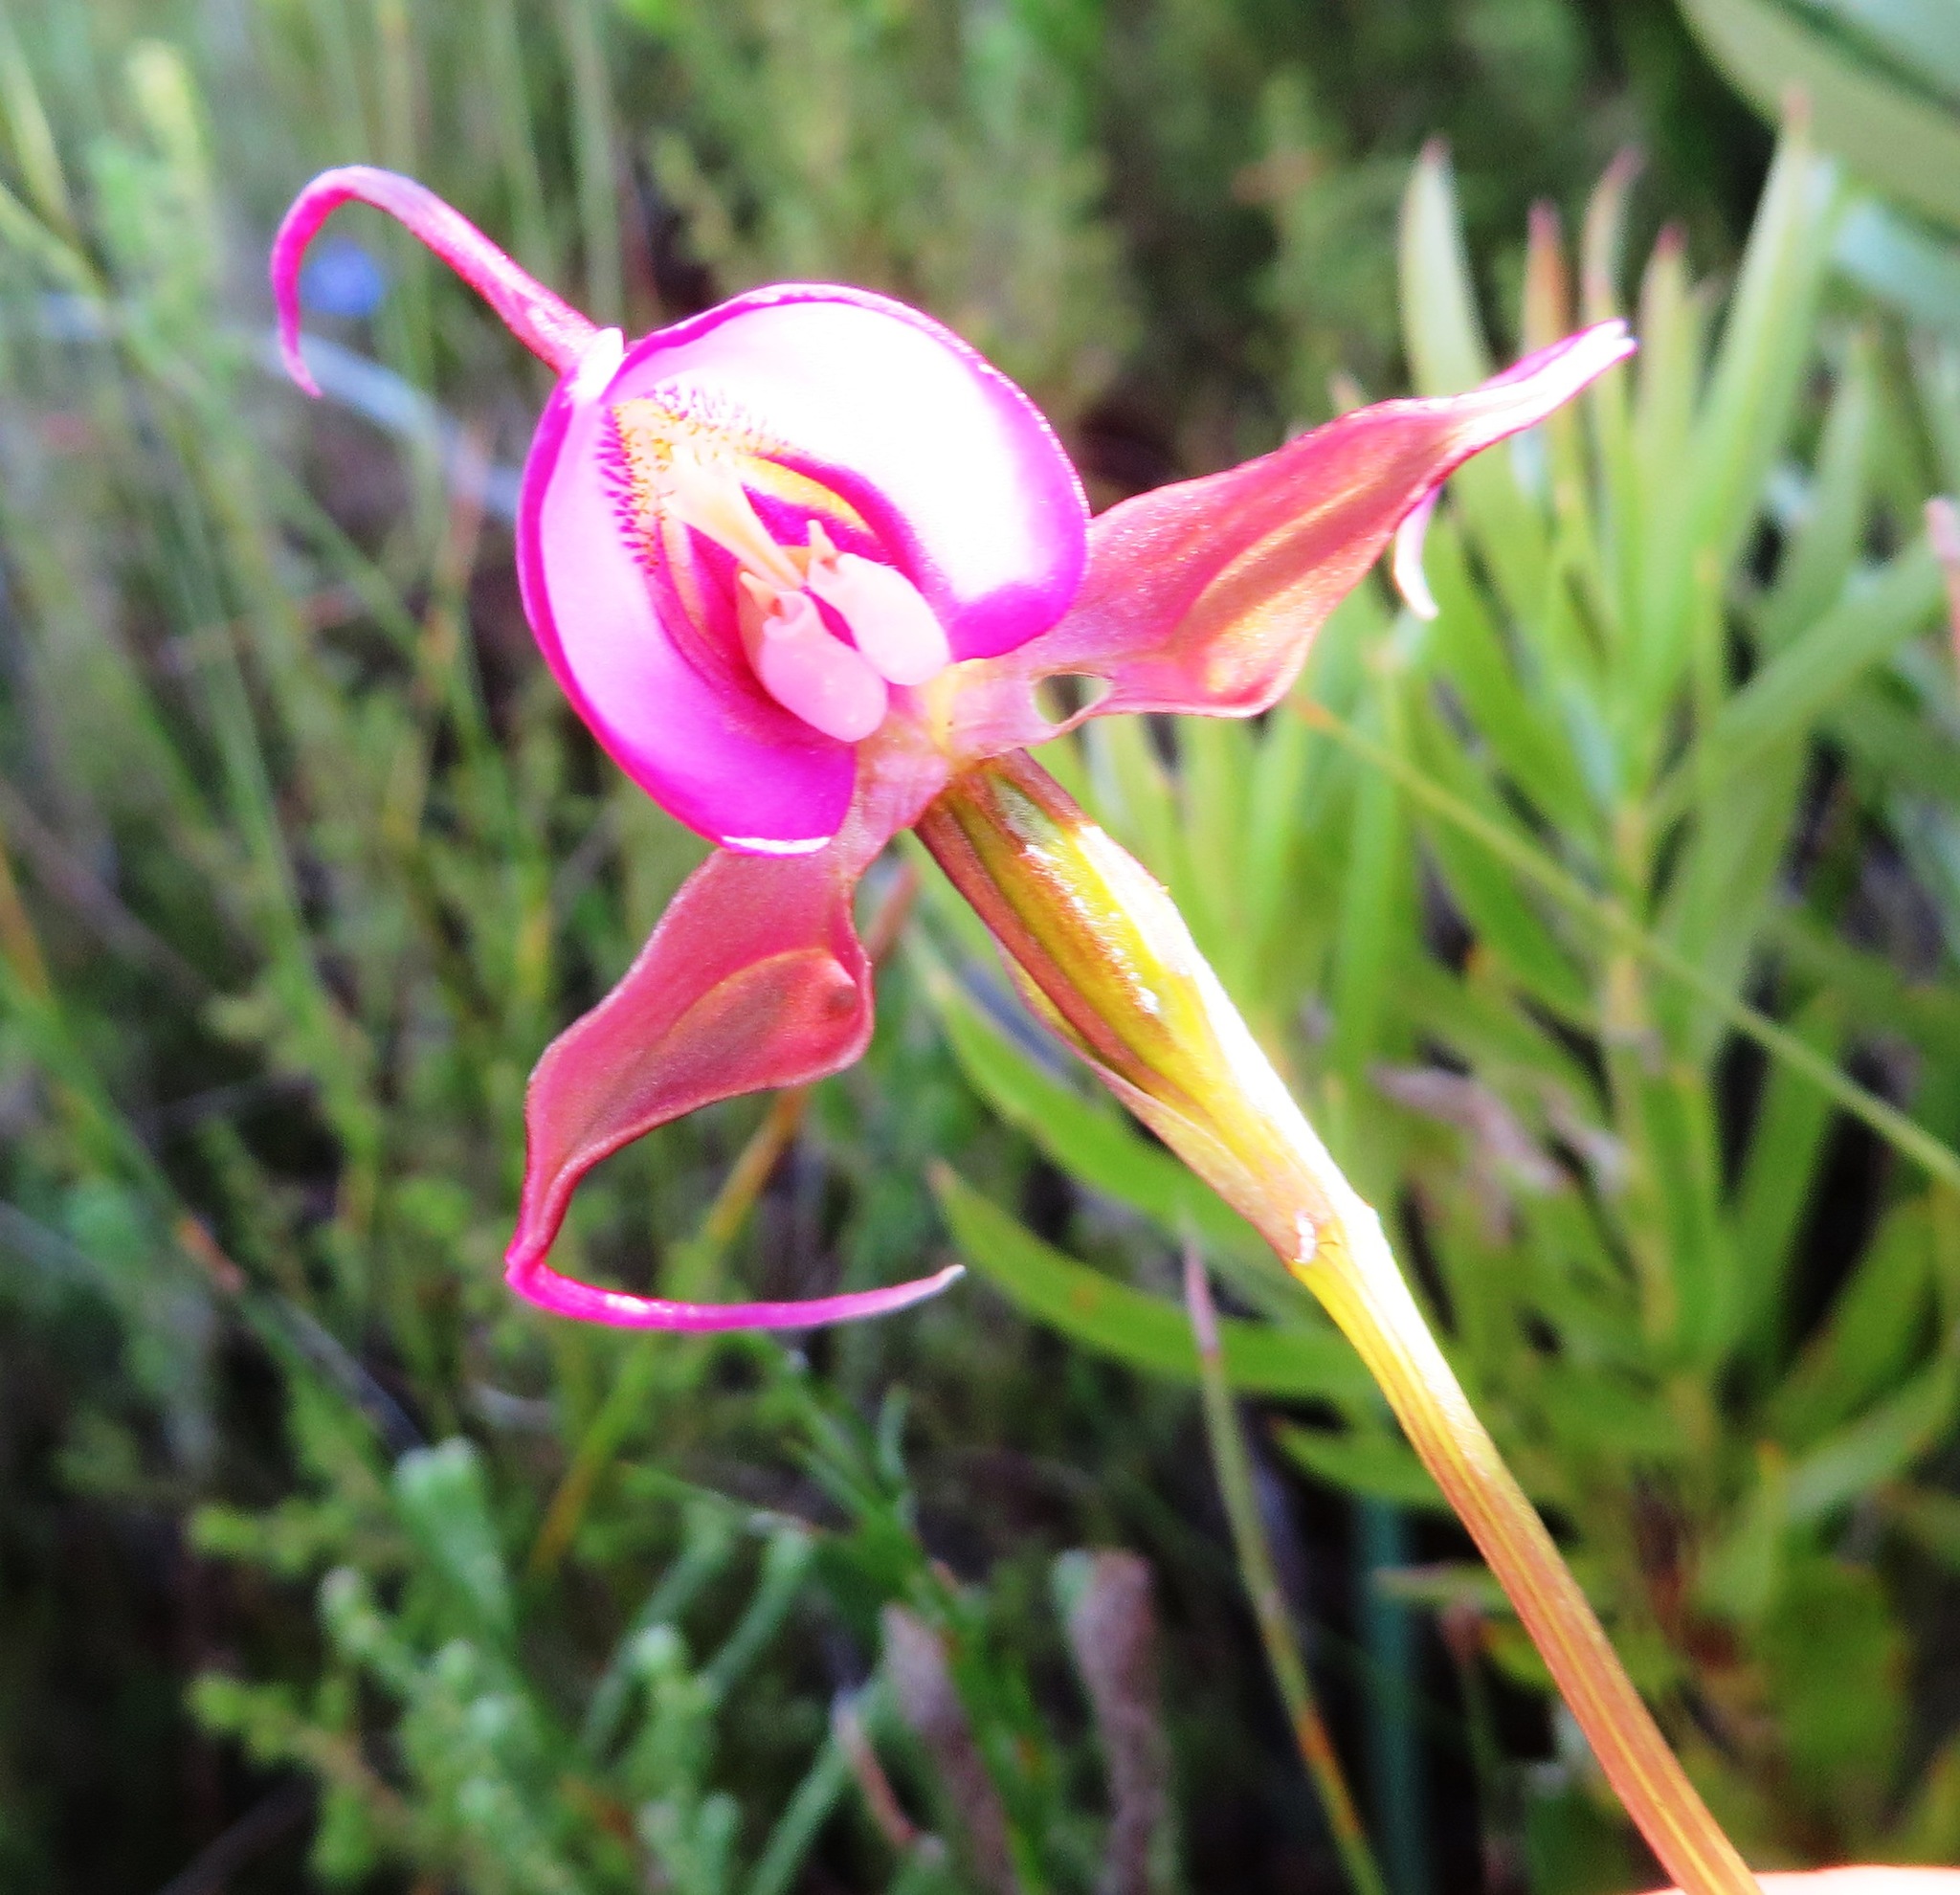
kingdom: Plantae
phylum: Tracheophyta
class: Liliopsida
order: Asparagales
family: Orchidaceae
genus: Disperis
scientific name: Disperis capensis
